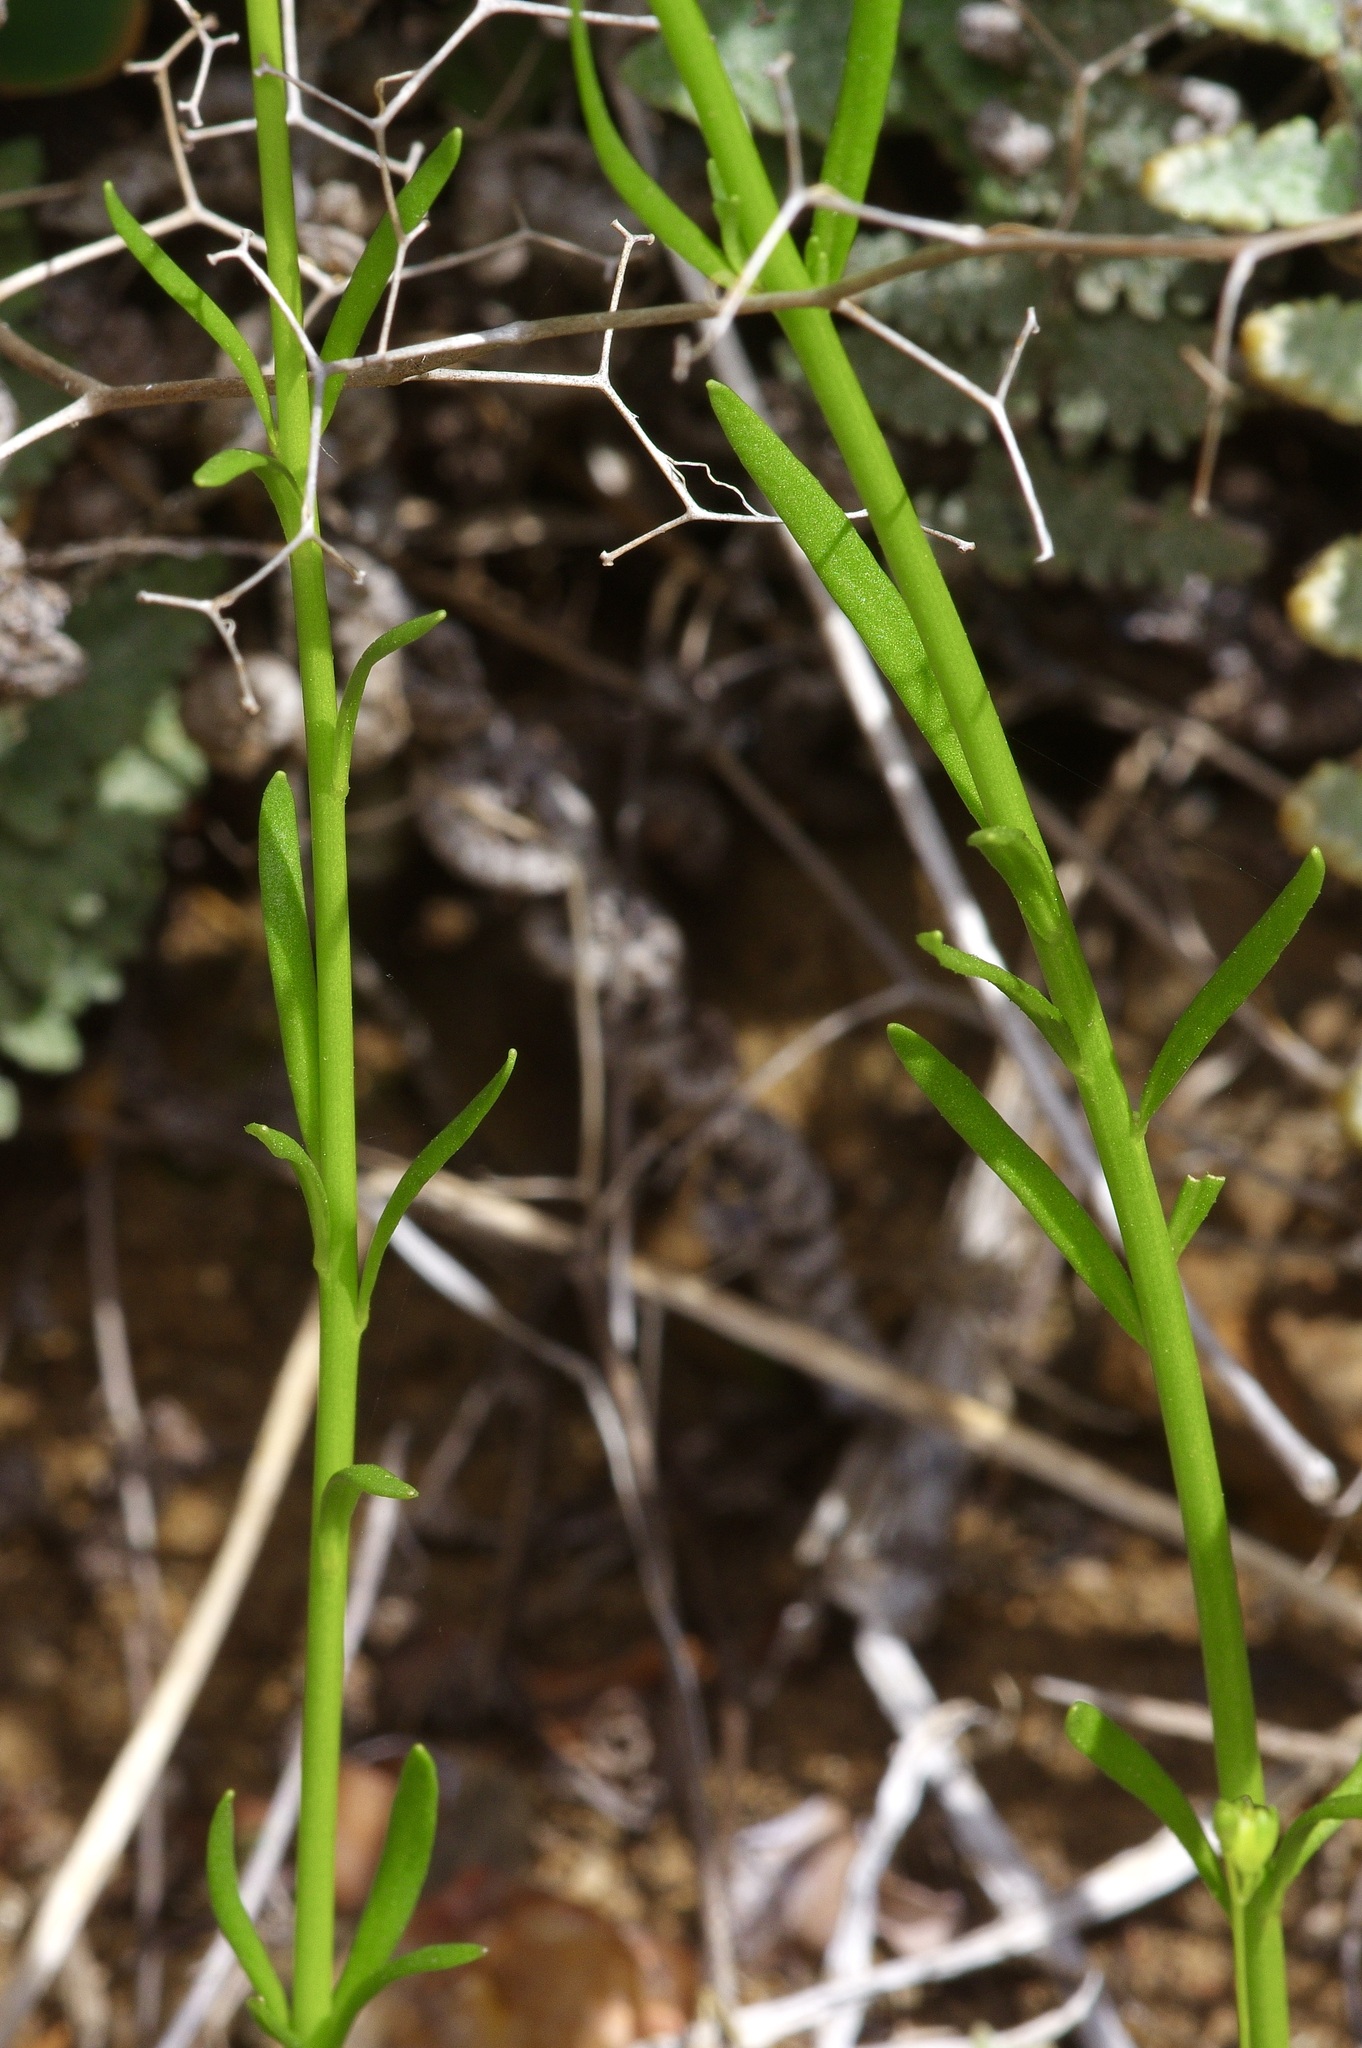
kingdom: Plantae
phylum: Tracheophyta
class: Magnoliopsida
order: Lamiales
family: Plantaginaceae
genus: Nuttallanthus
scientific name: Nuttallanthus texanus
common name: Texas toadflax
